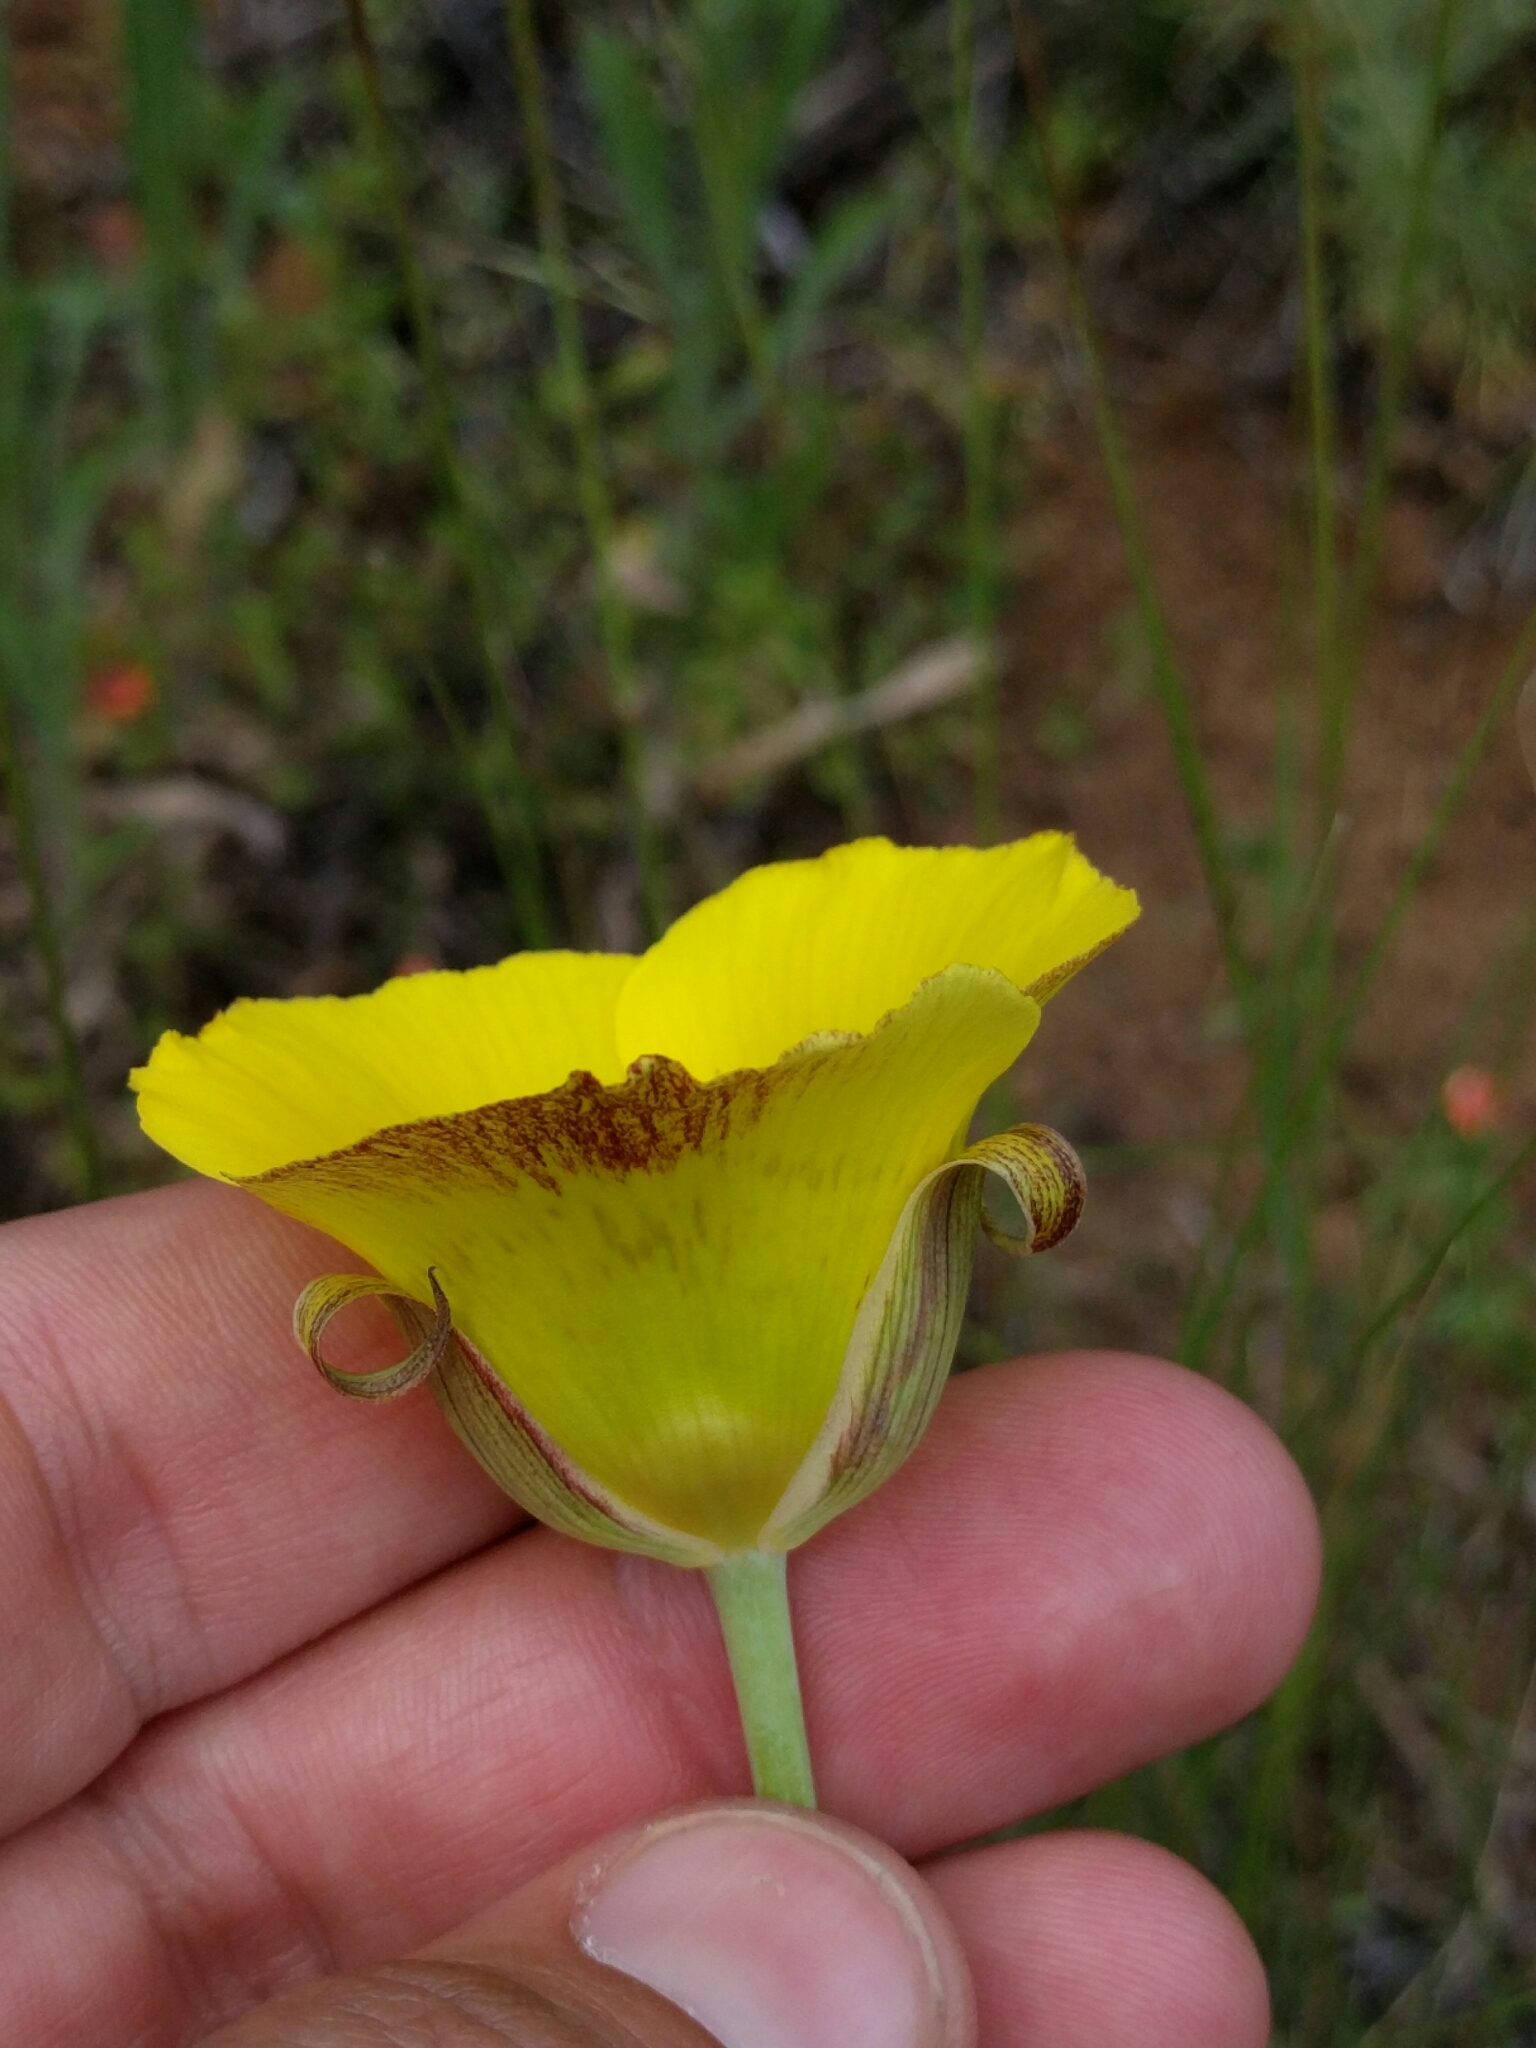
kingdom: Plantae
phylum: Tracheophyta
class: Liliopsida
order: Liliales
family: Liliaceae
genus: Calochortus
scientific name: Calochortus luteus
